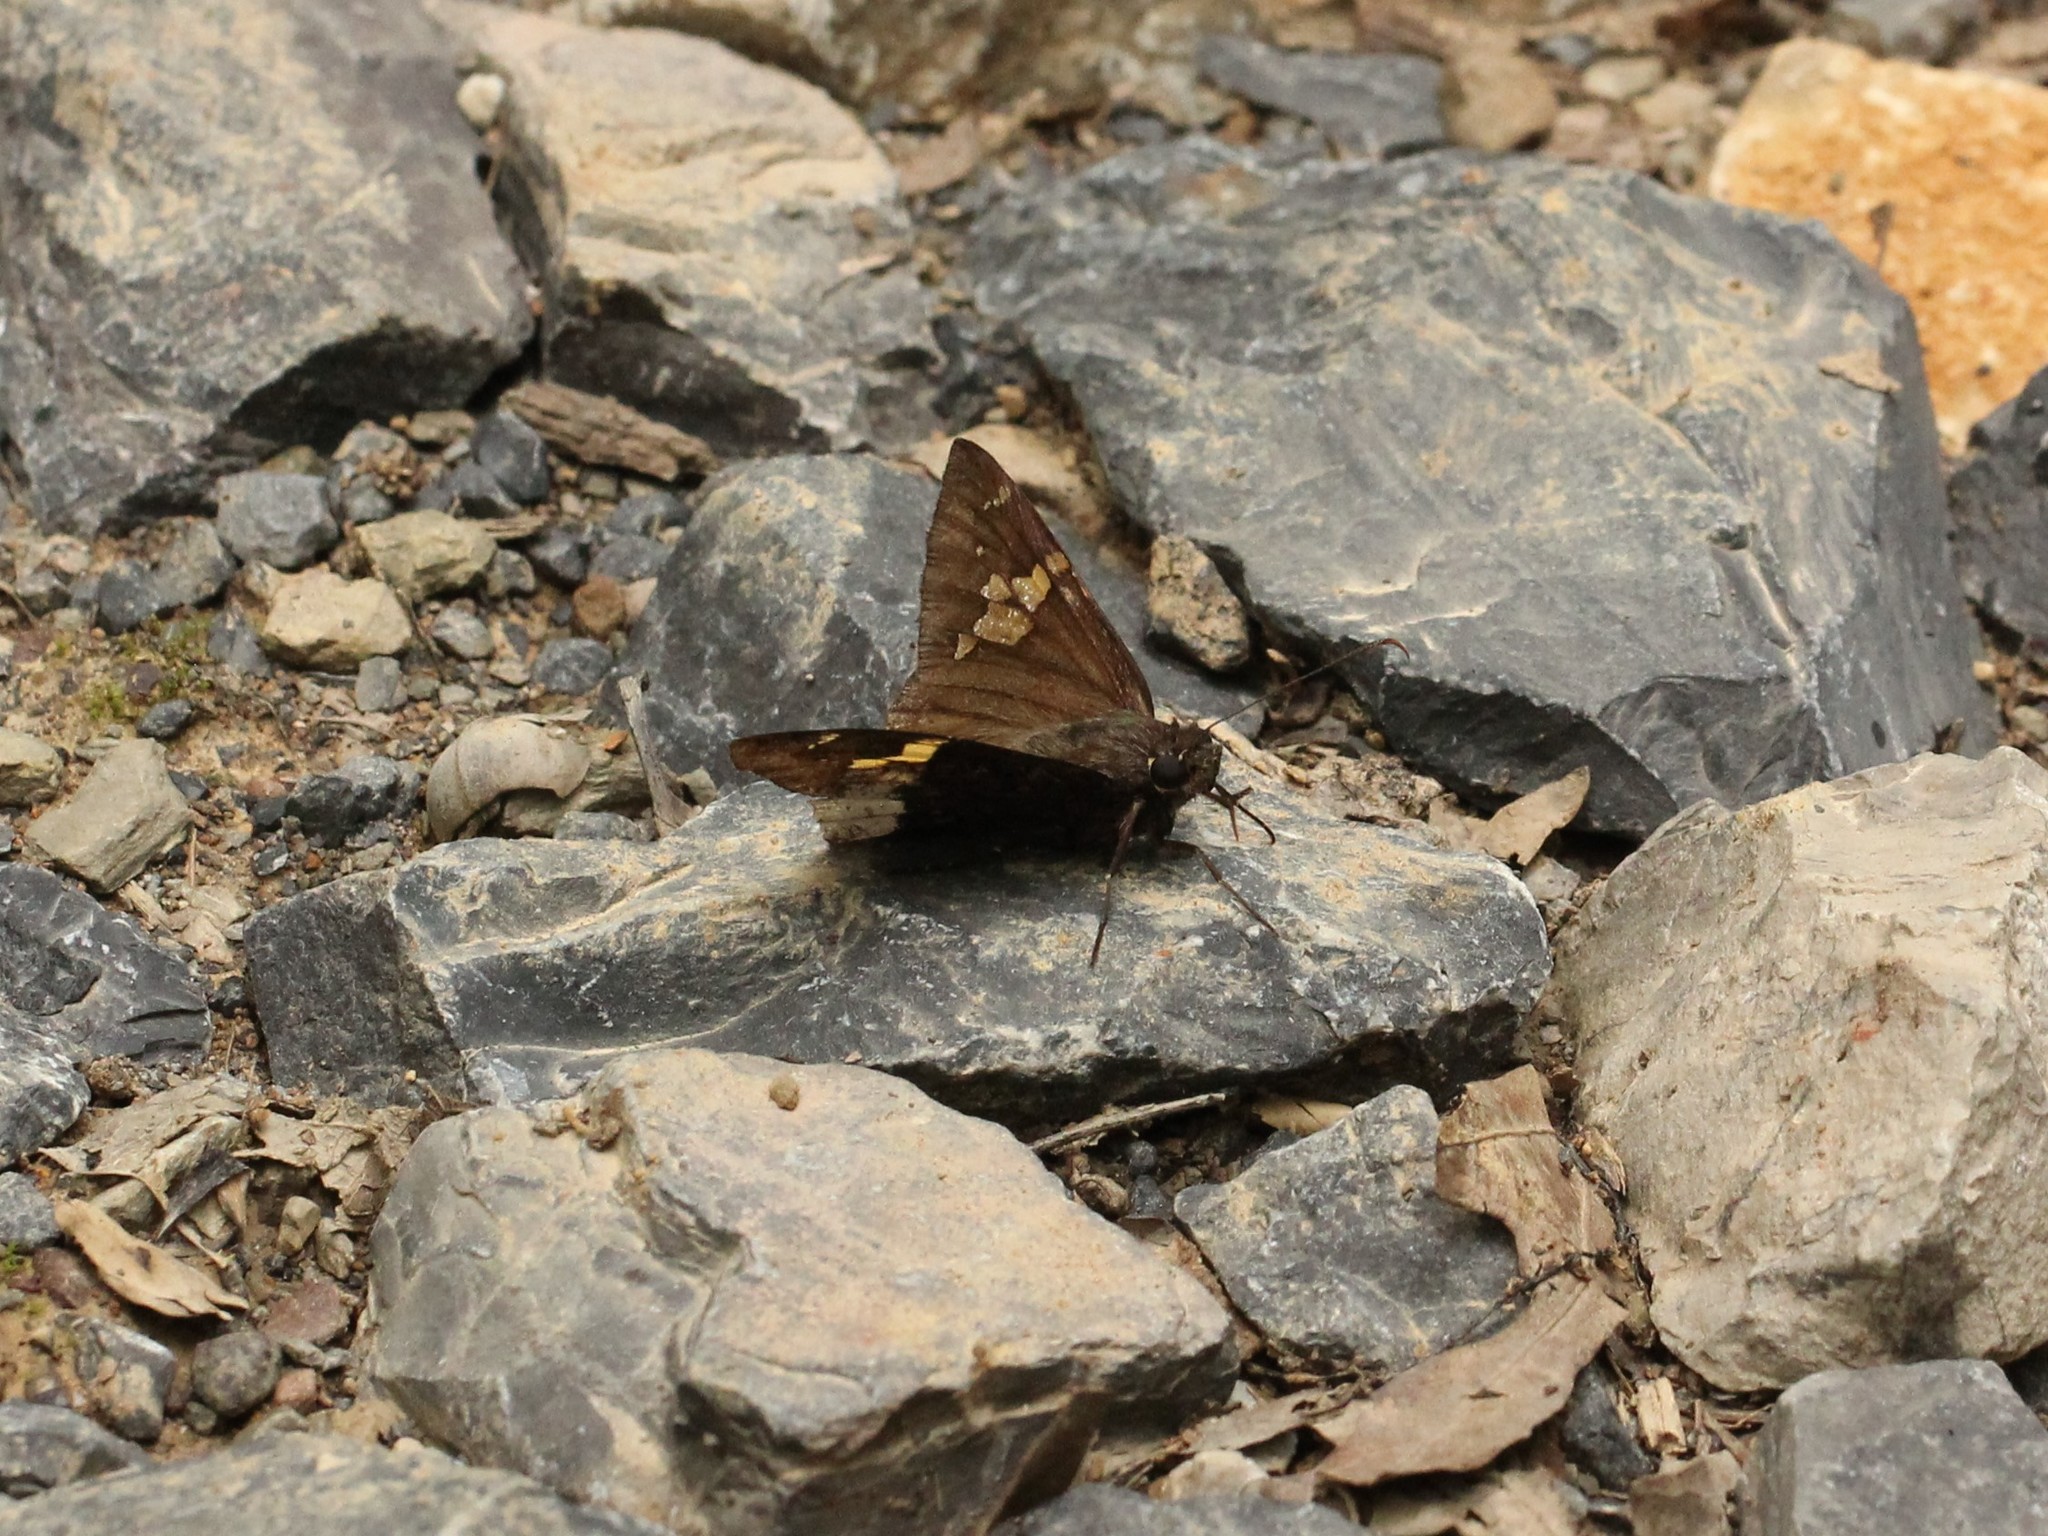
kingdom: Animalia
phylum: Arthropoda
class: Insecta
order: Lepidoptera
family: Hesperiidae
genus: Thorybes
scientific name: Thorybes lyciades
